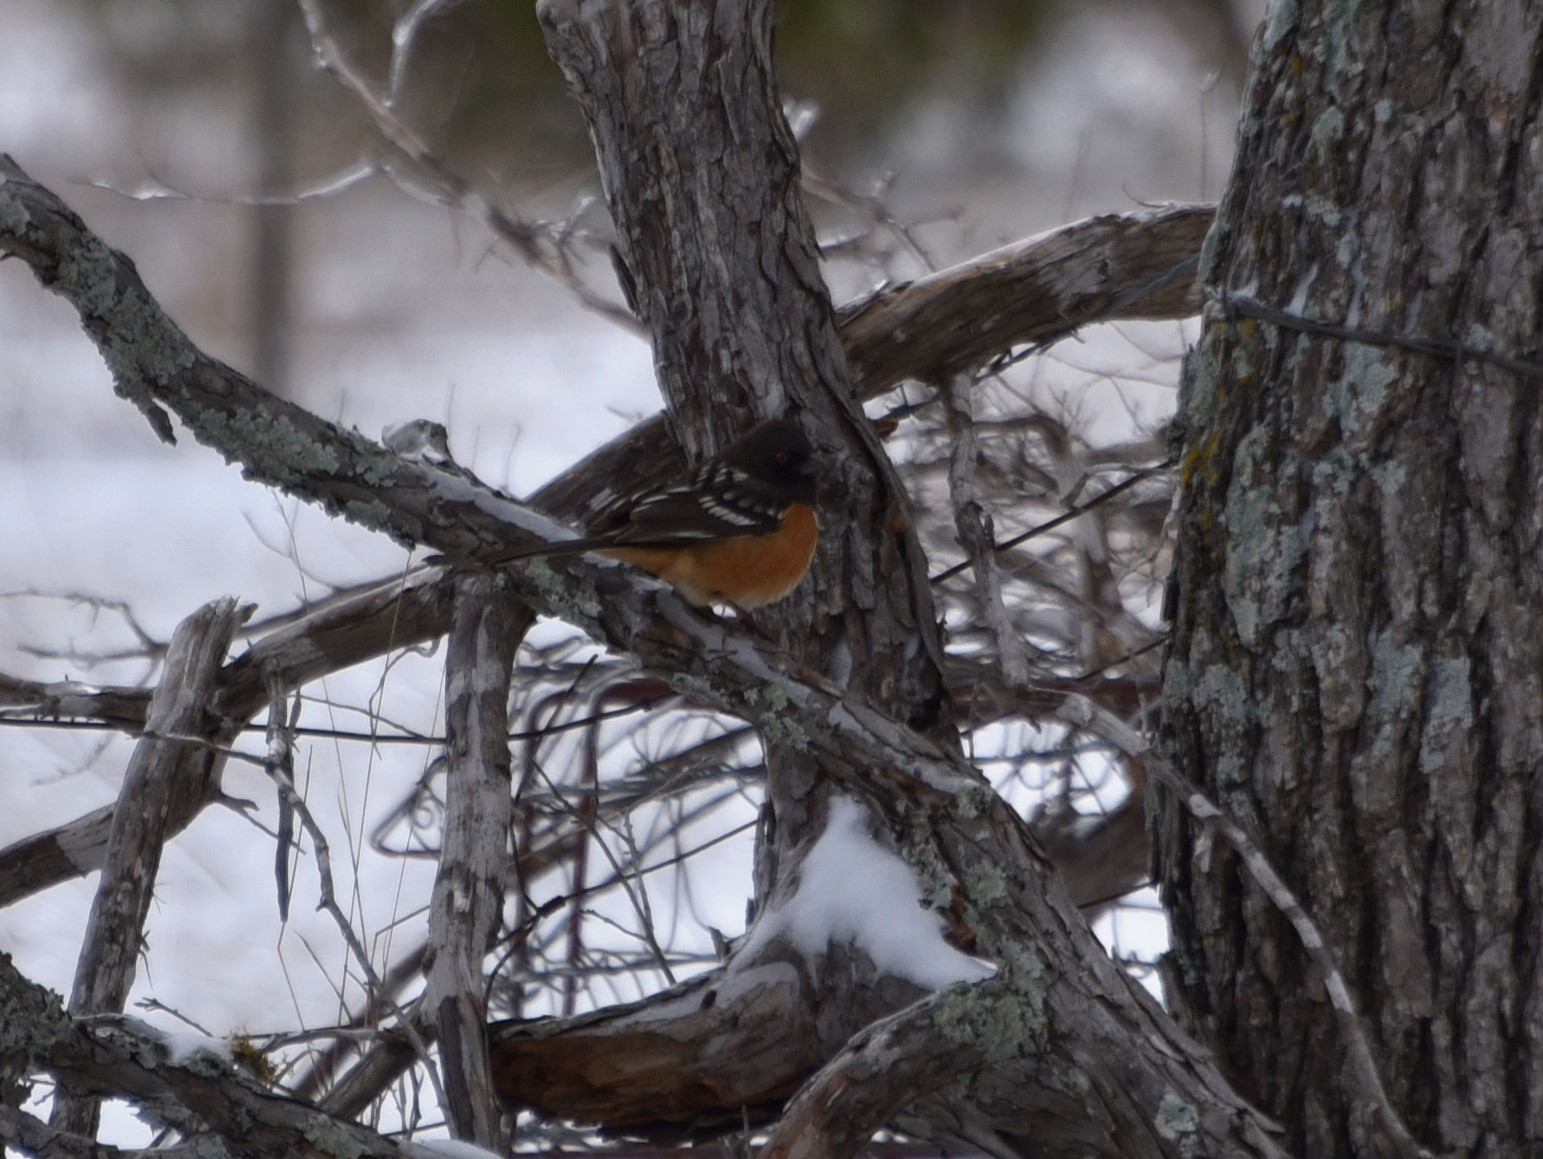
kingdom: Animalia
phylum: Chordata
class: Aves
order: Passeriformes
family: Passerellidae
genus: Pipilo
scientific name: Pipilo maculatus
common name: Spotted towhee
